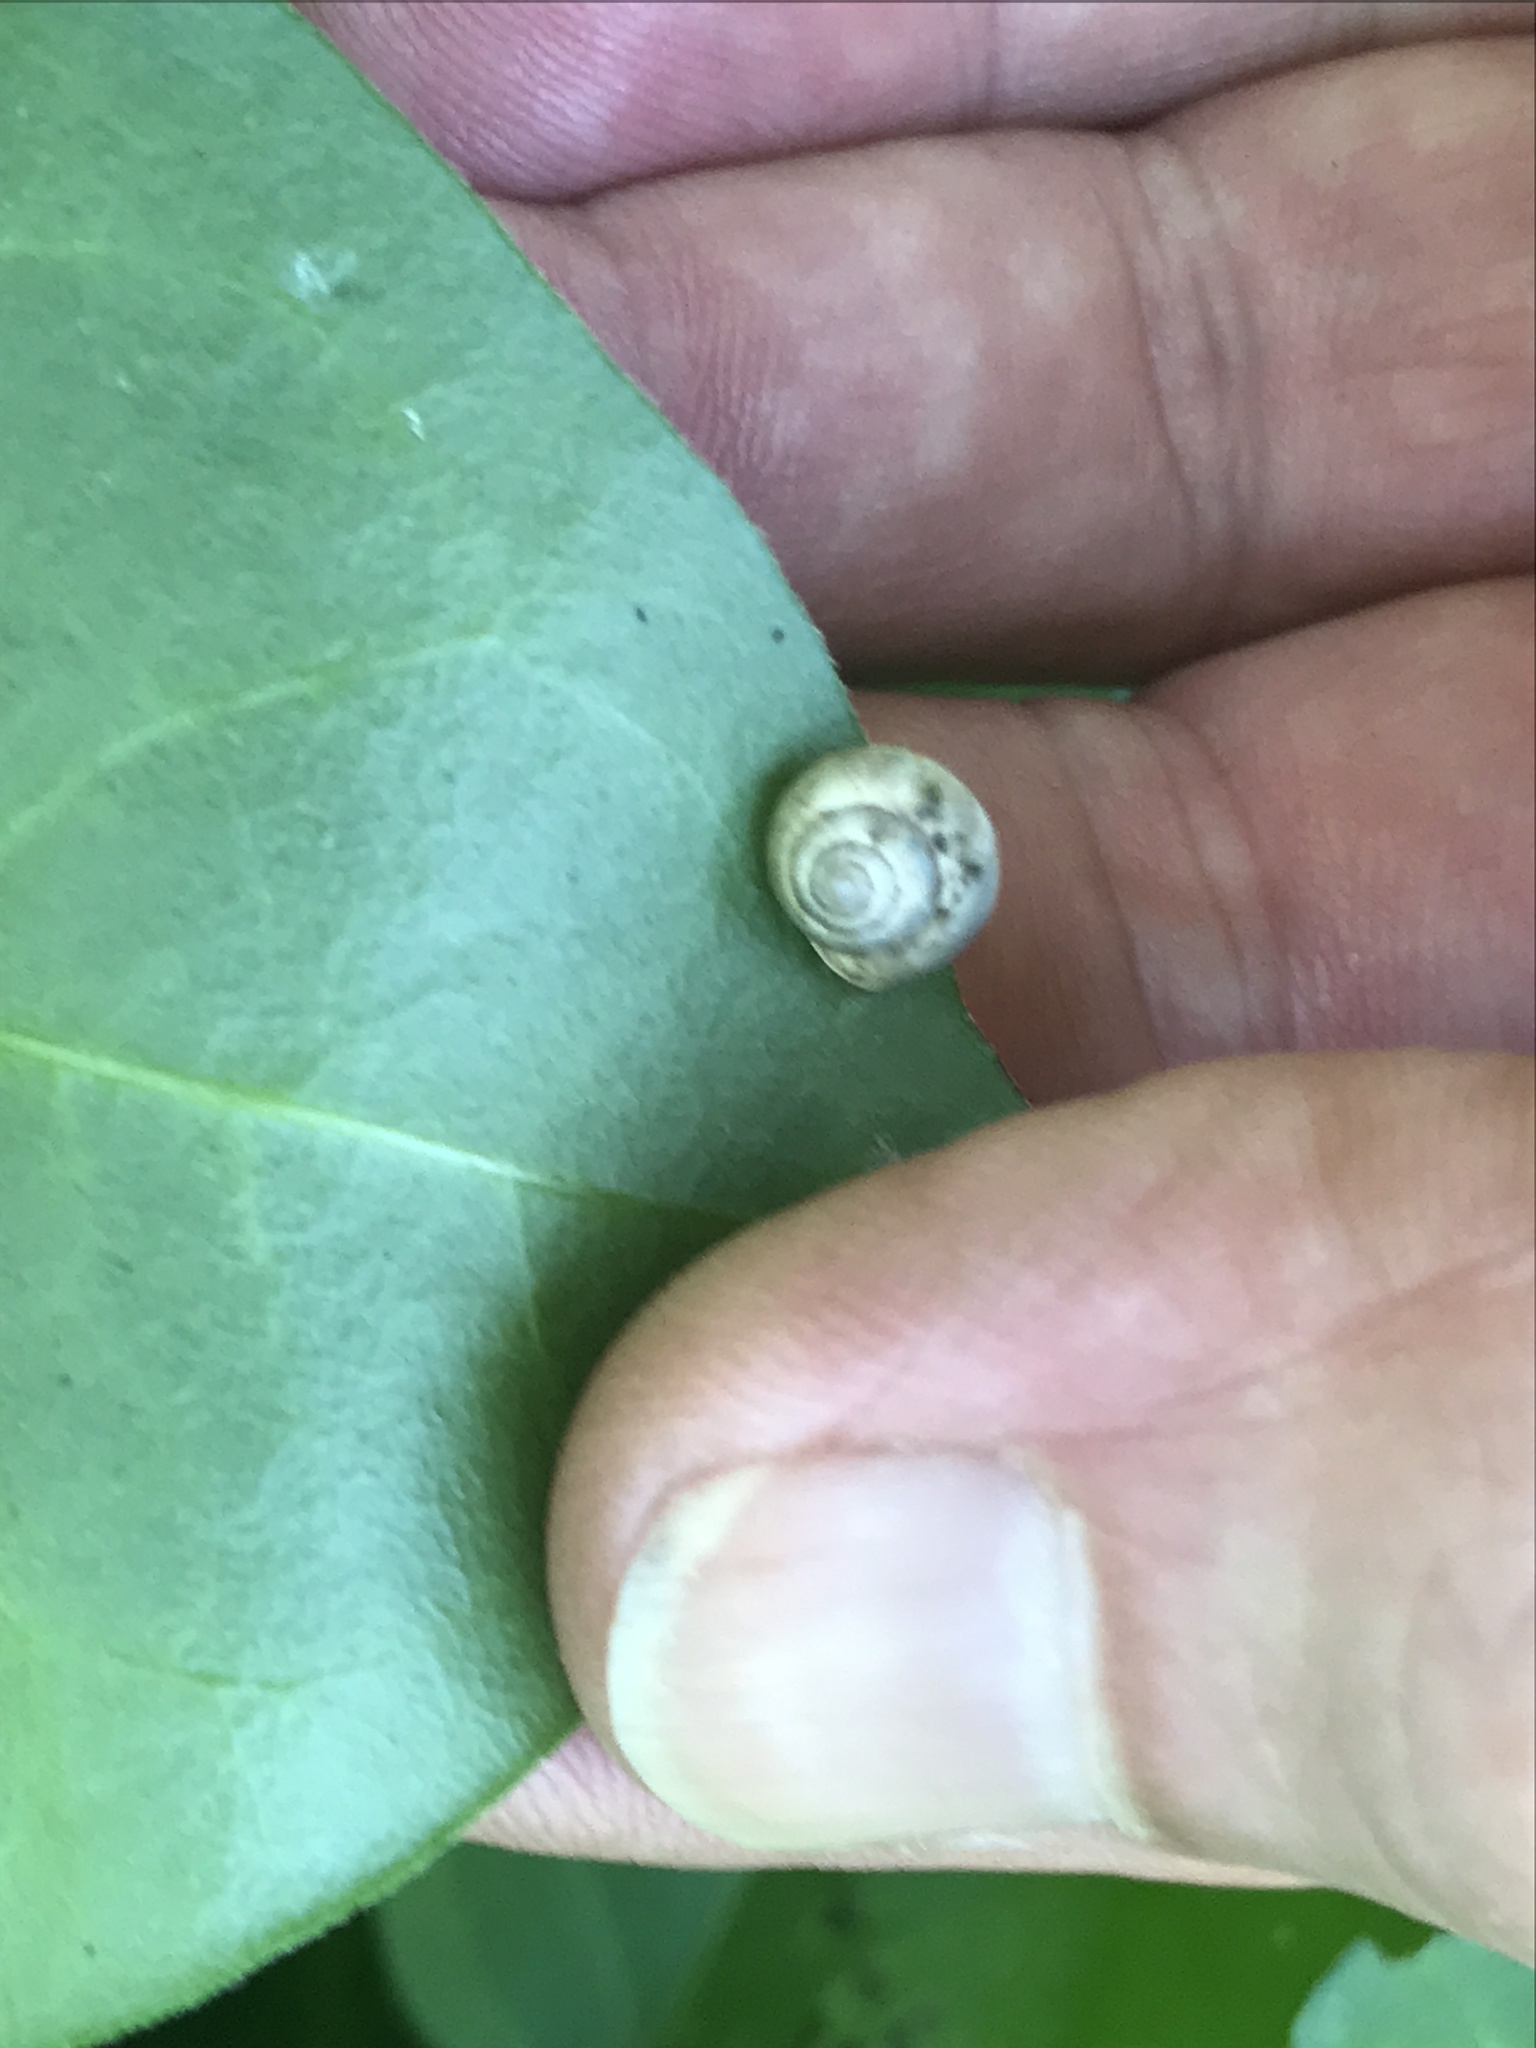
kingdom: Animalia
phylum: Mollusca
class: Gastropoda
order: Cycloneritida
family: Helicinidae
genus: Helicina
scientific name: Helicina orbiculata
